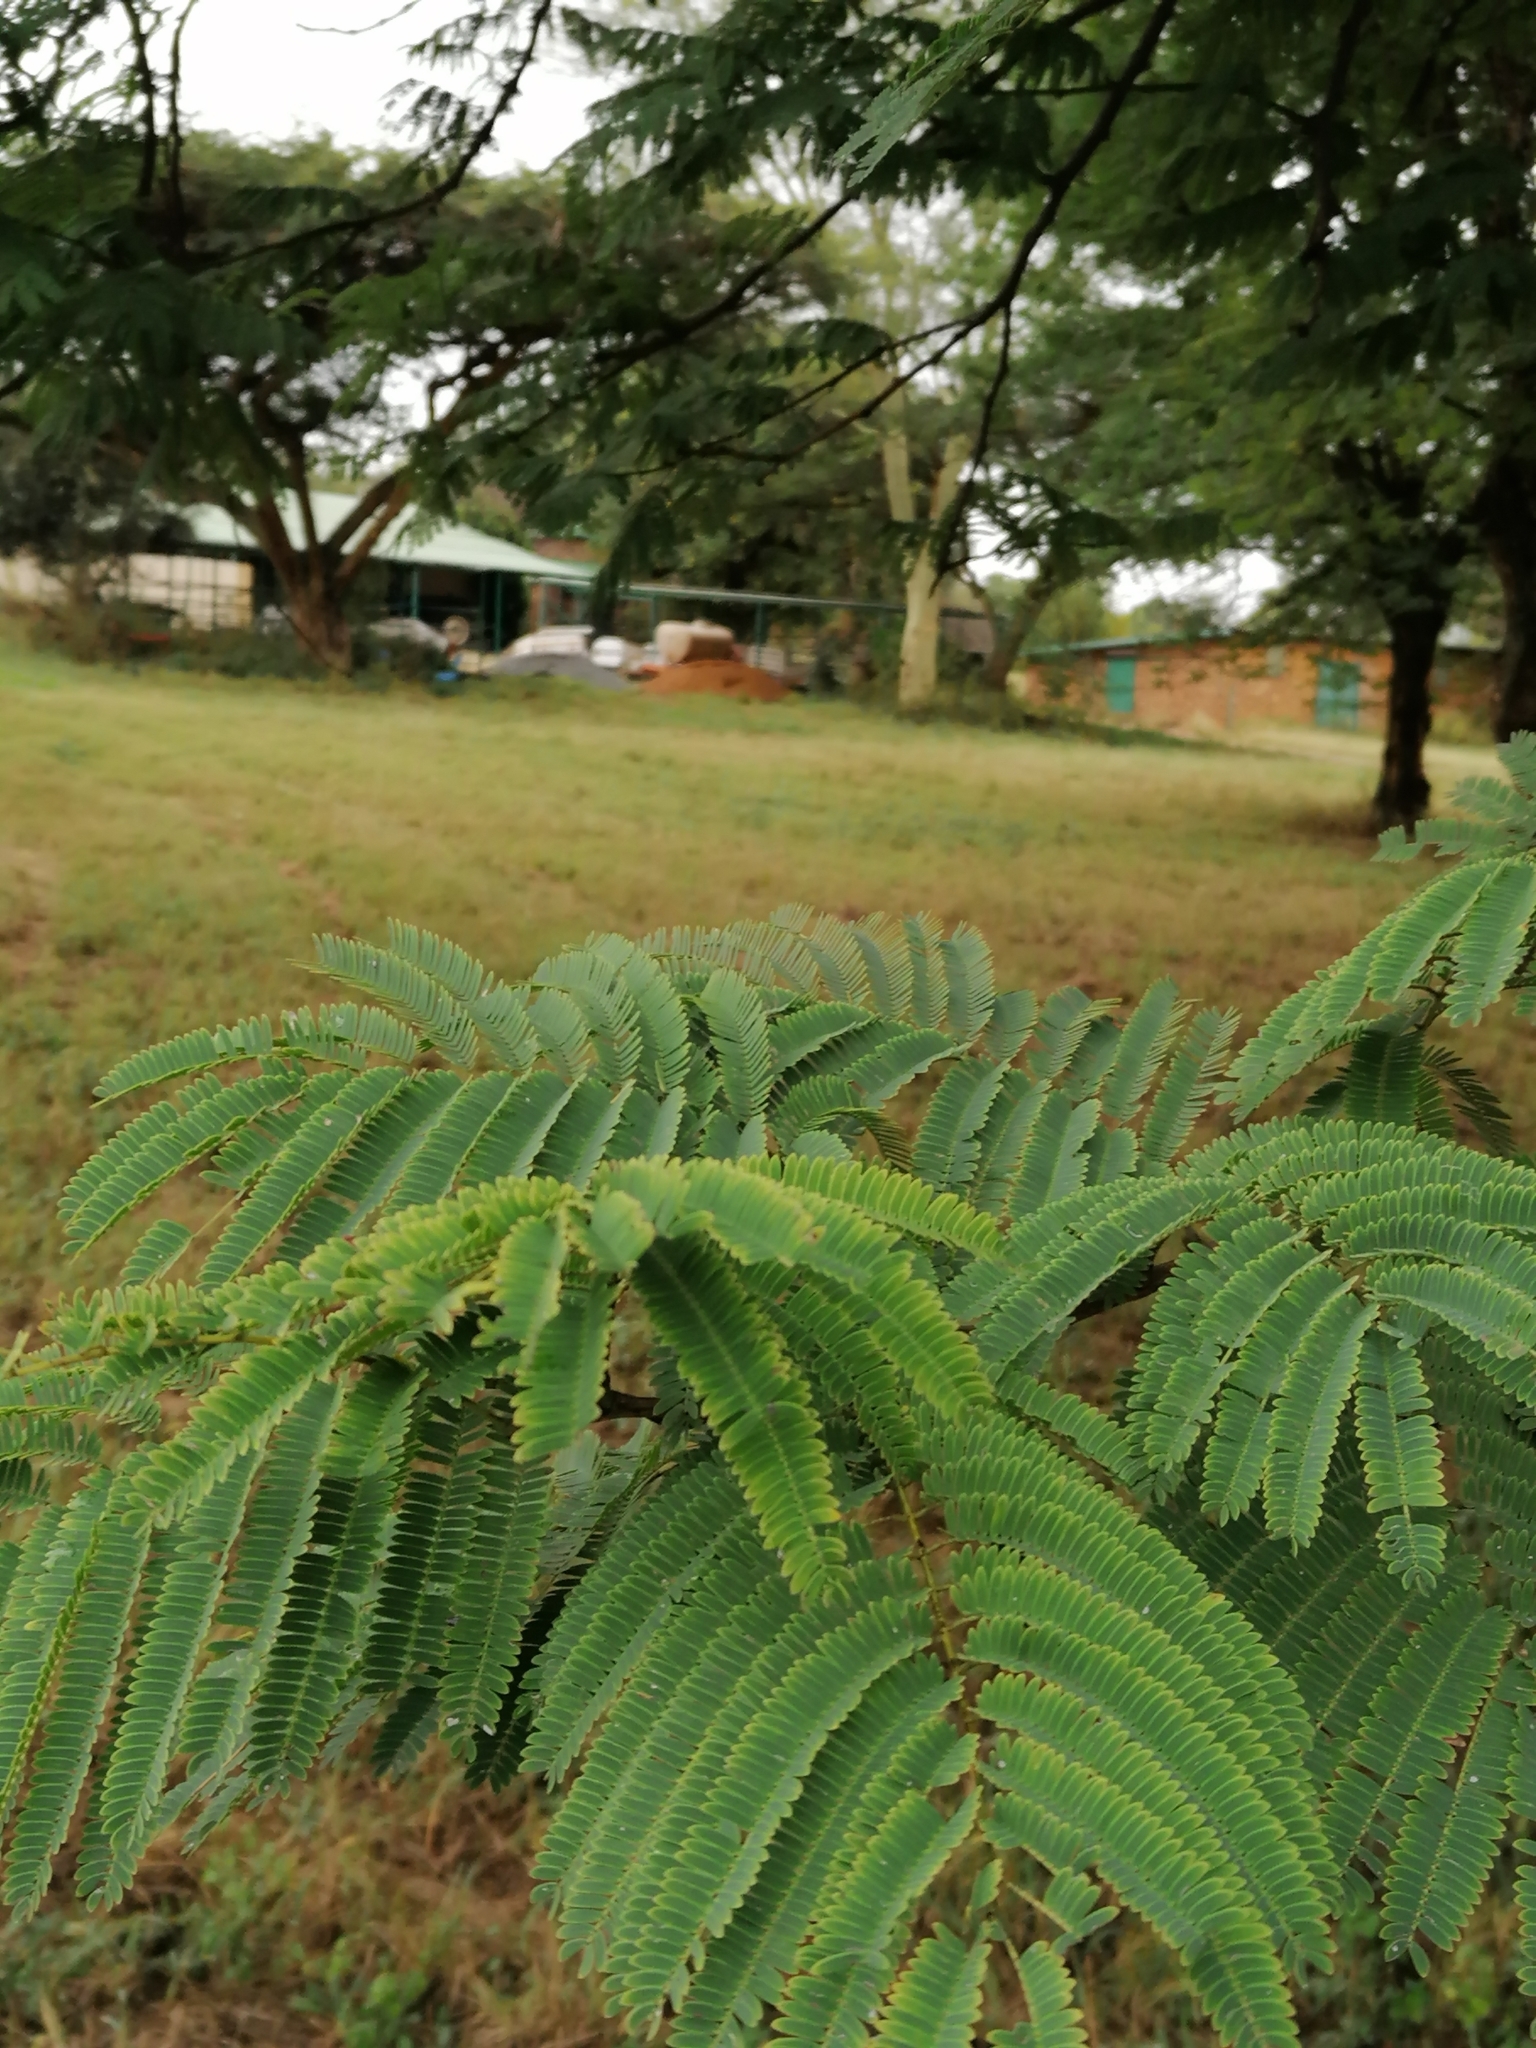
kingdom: Plantae
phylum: Tracheophyta
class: Magnoliopsida
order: Fabales
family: Fabaceae
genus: Senegalia
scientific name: Senegalia galpinii
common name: Monkey-thorn
